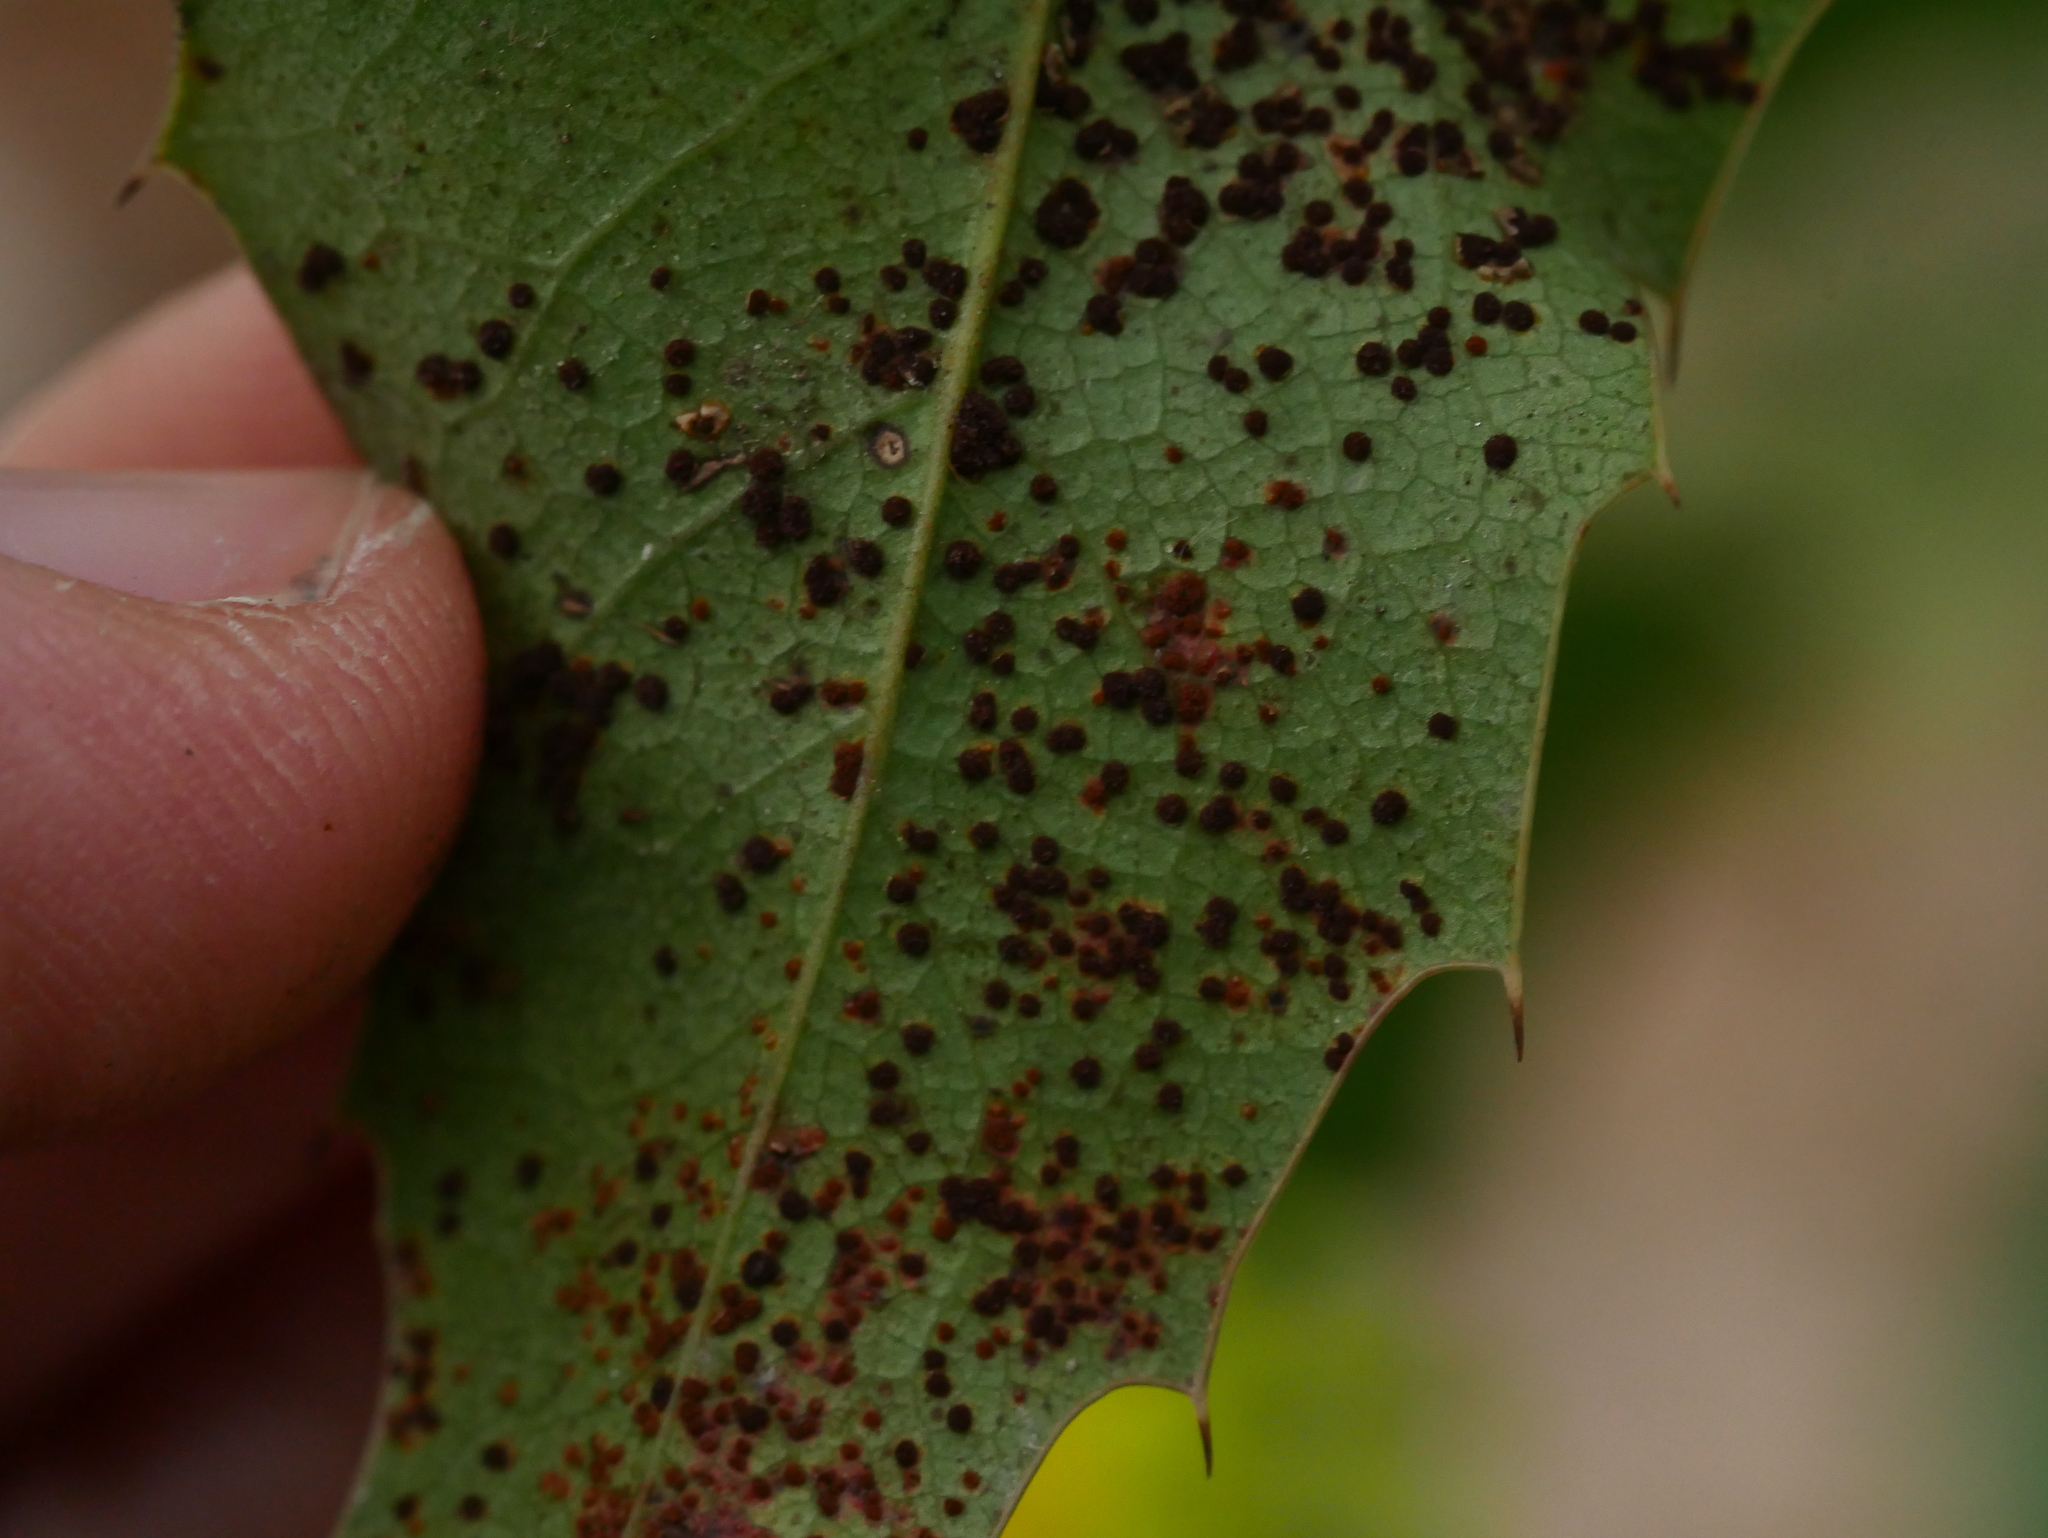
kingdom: Fungi
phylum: Basidiomycota
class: Pucciniomycetes
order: Pucciniales
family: Pucciniaceae
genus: Cumminsiella
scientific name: Cumminsiella mirabilissima
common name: Mahonia rust
